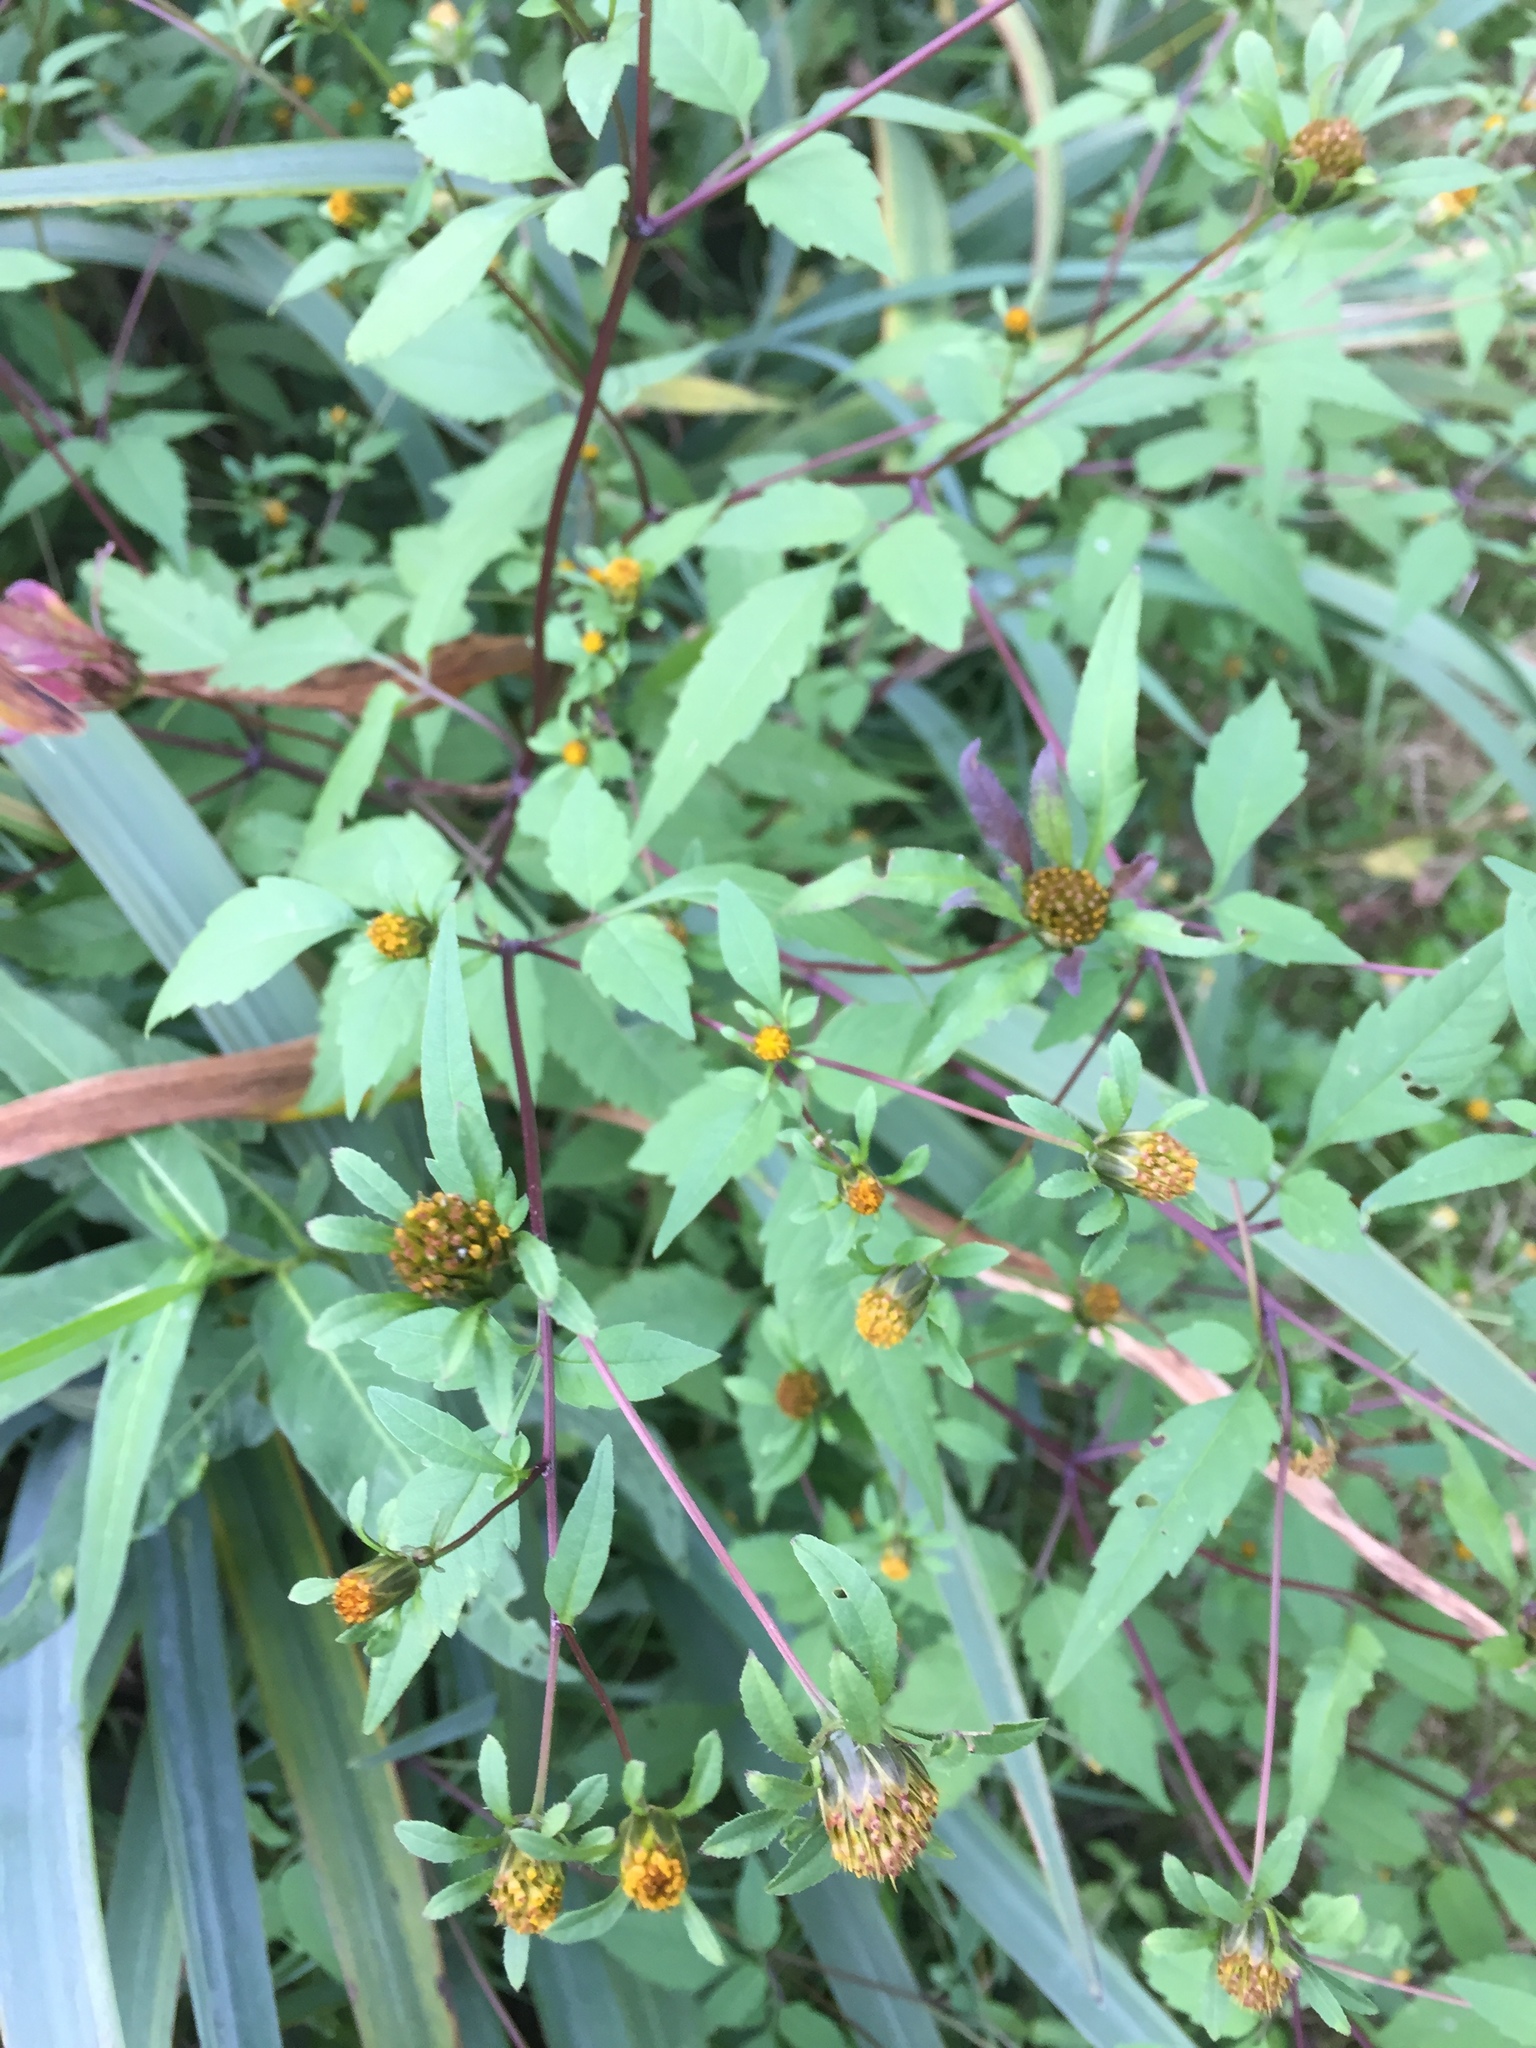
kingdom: Plantae
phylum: Tracheophyta
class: Magnoliopsida
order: Asterales
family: Asteraceae
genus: Bidens
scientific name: Bidens frondosa
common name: Beggarticks
